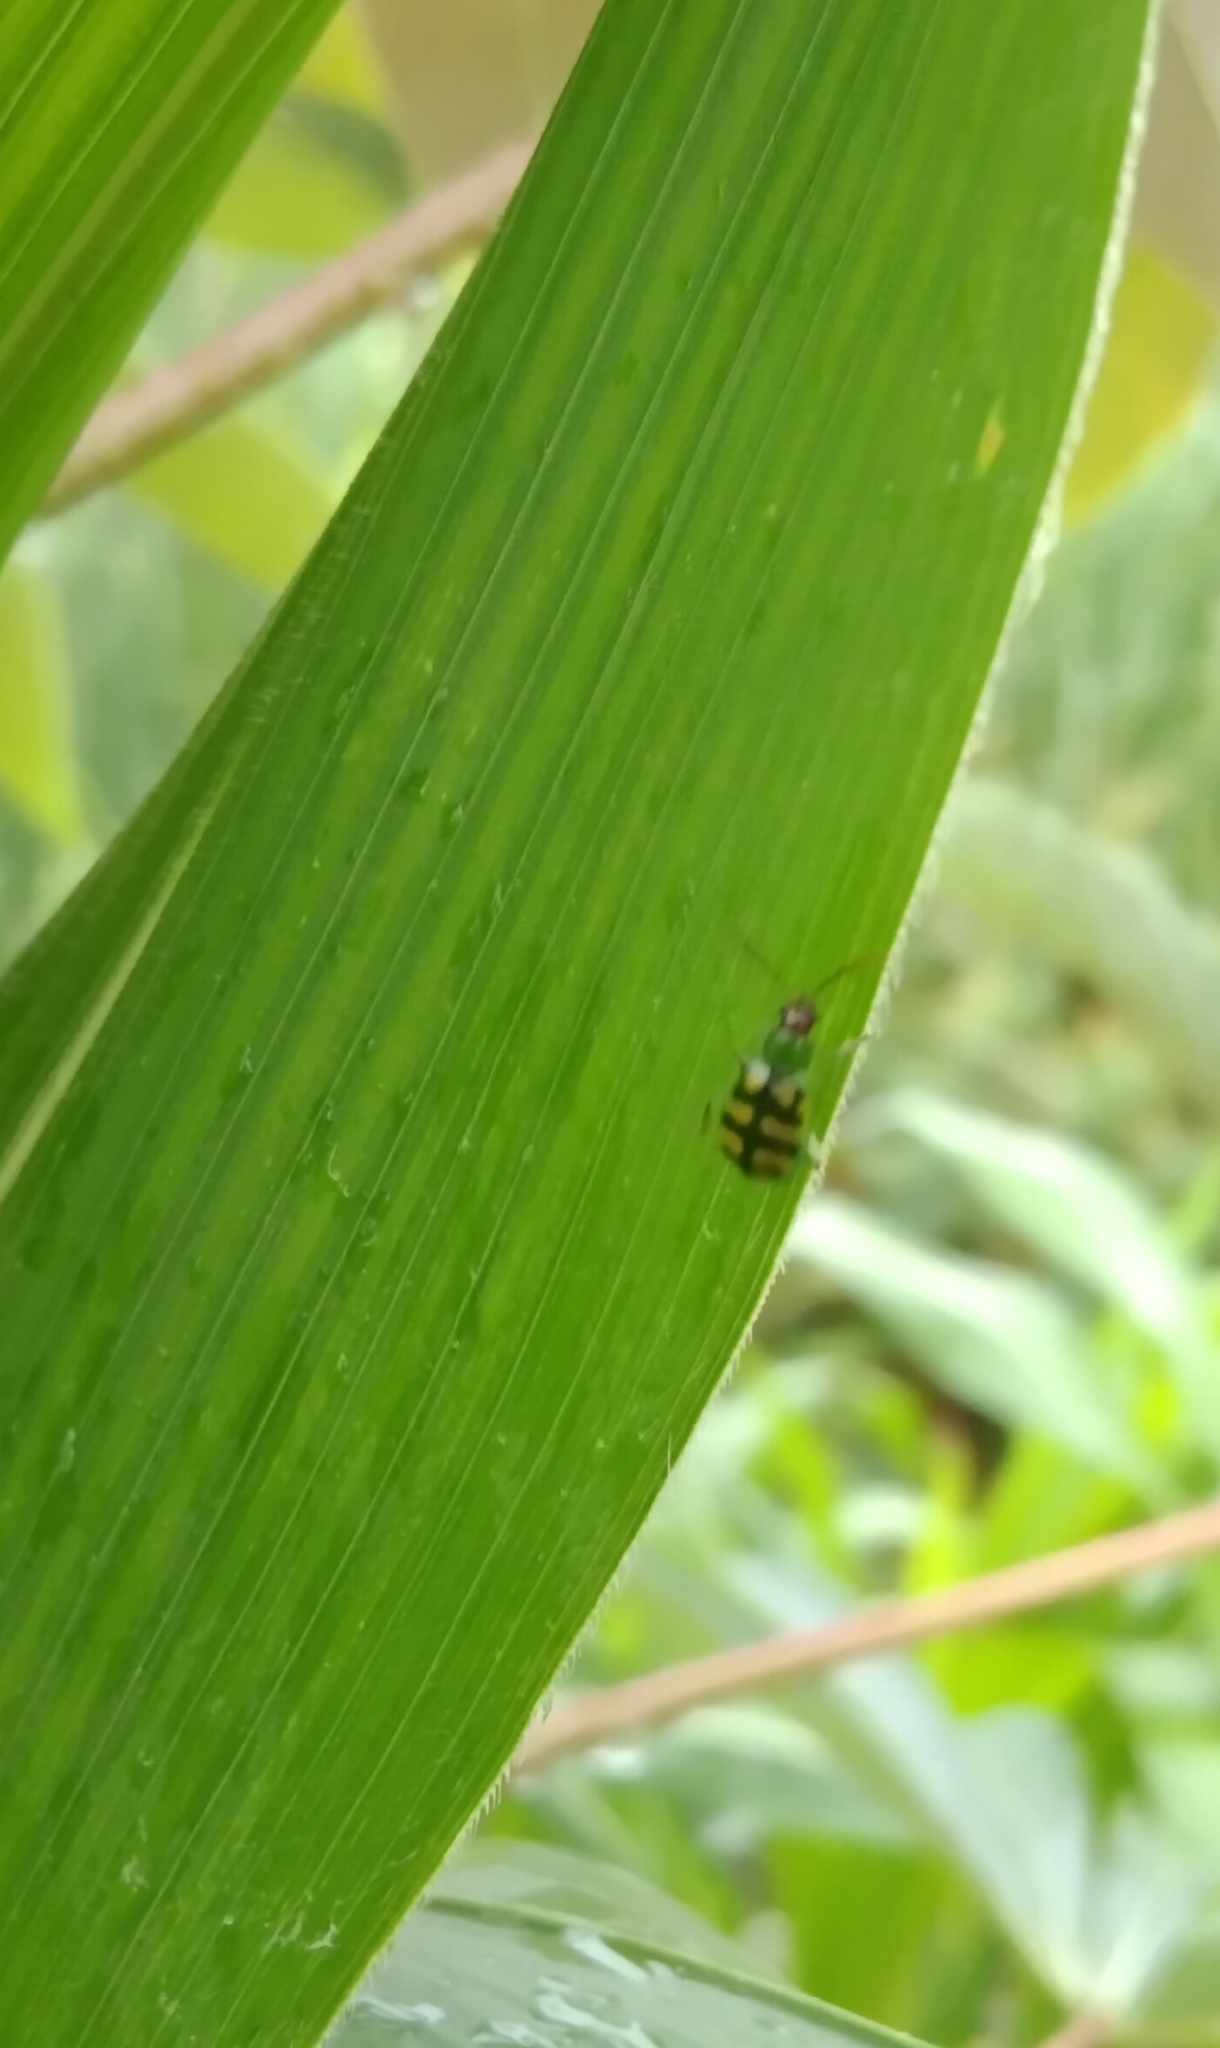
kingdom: Animalia
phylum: Arthropoda
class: Insecta
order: Coleoptera
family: Chrysomelidae
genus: Diabrotica
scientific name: Diabrotica balteata
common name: Leaf beetle
